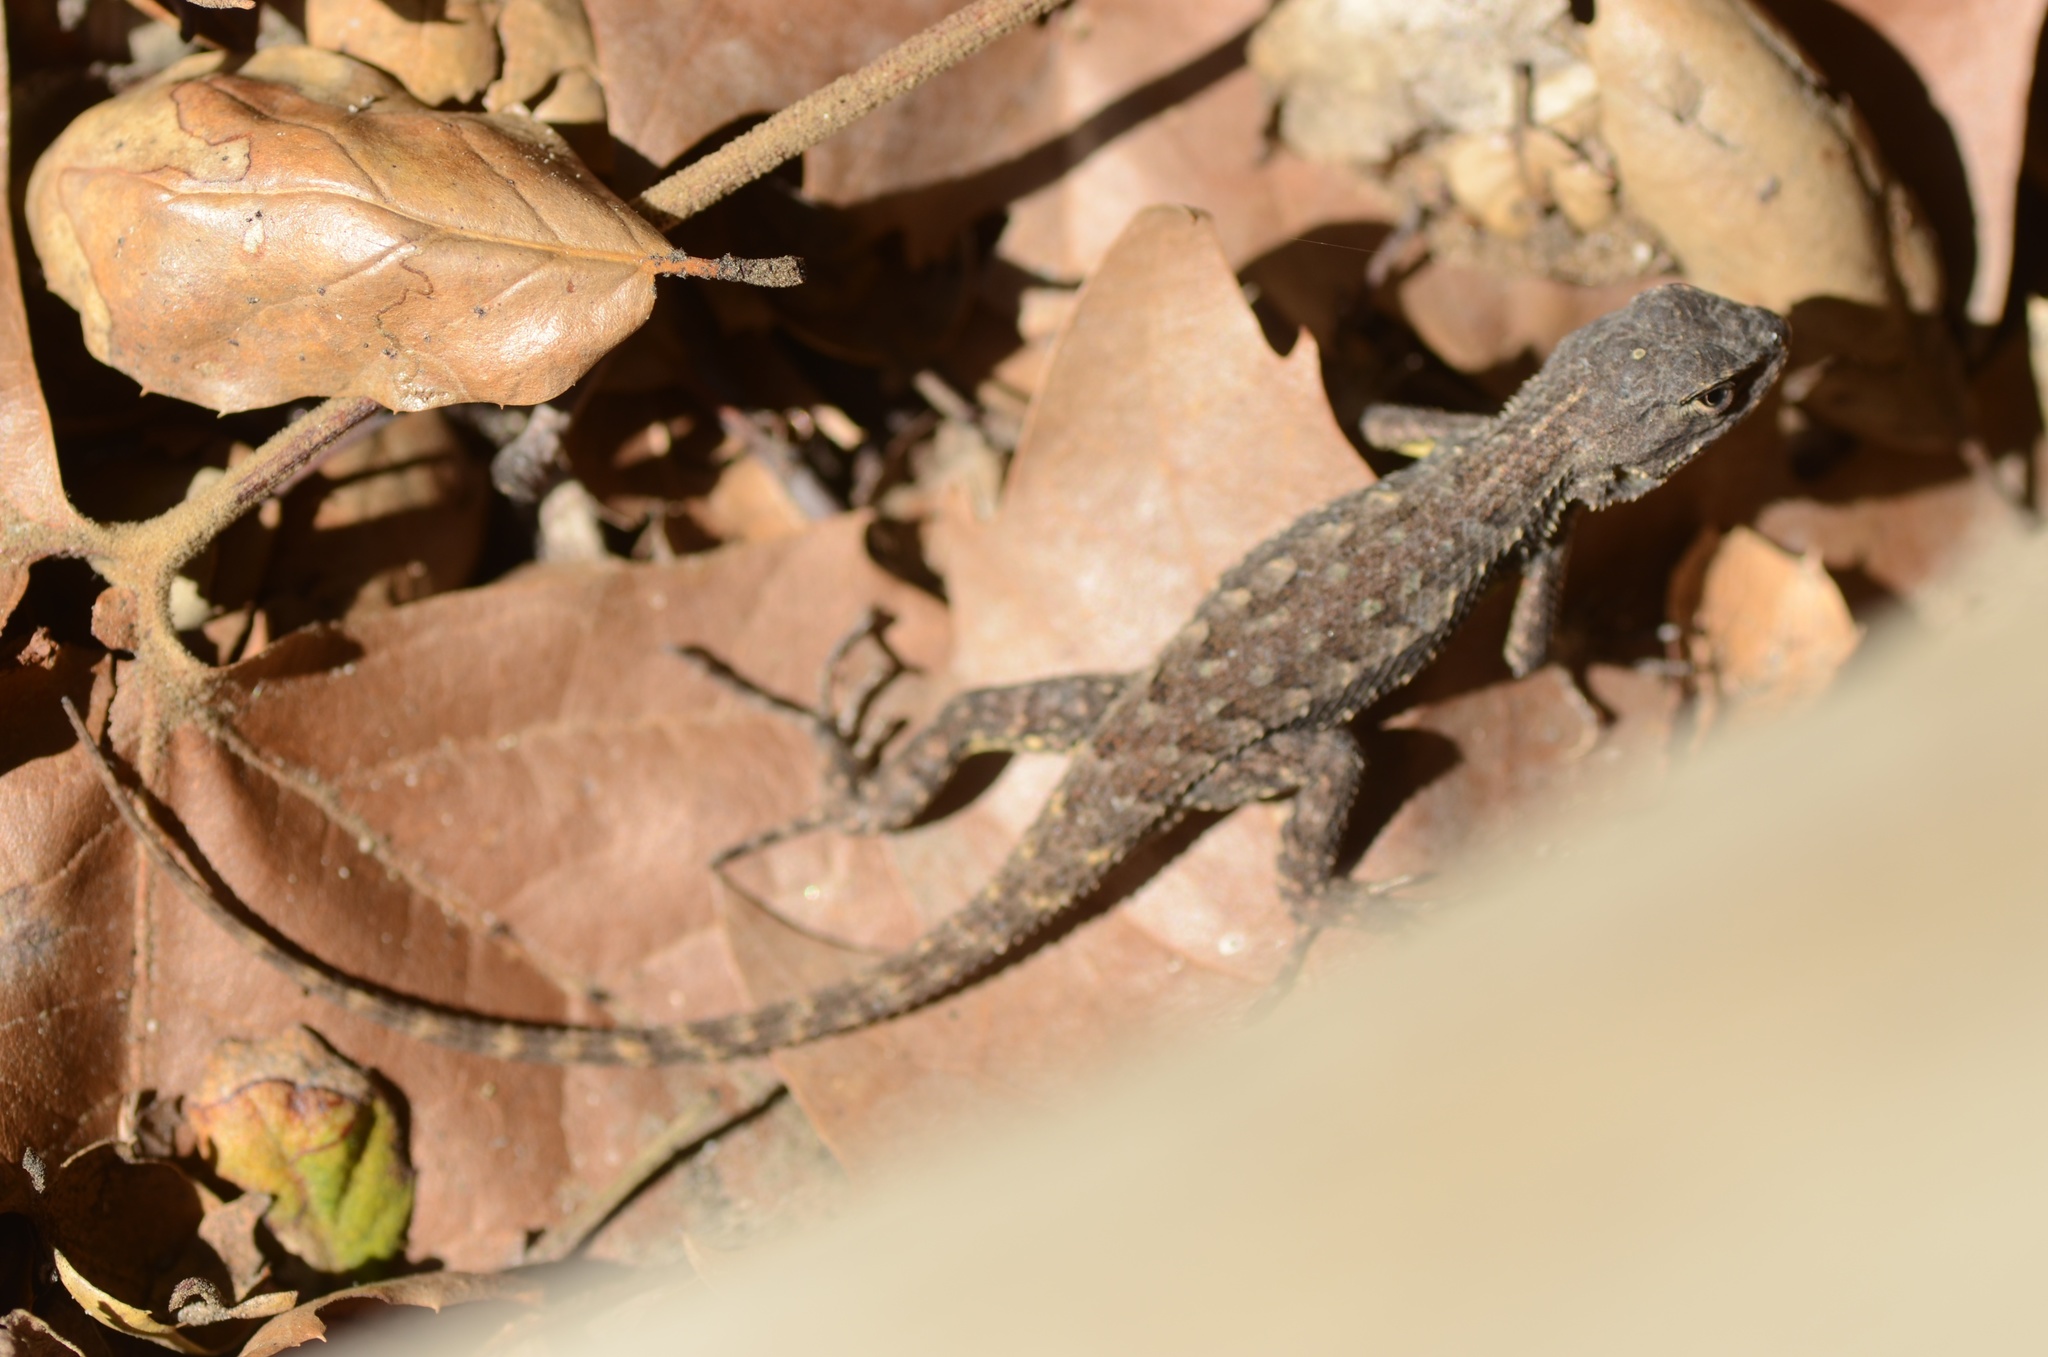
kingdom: Animalia
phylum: Chordata
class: Squamata
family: Phrynosomatidae
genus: Sceloporus
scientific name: Sceloporus occidentalis
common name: Western fence lizard
